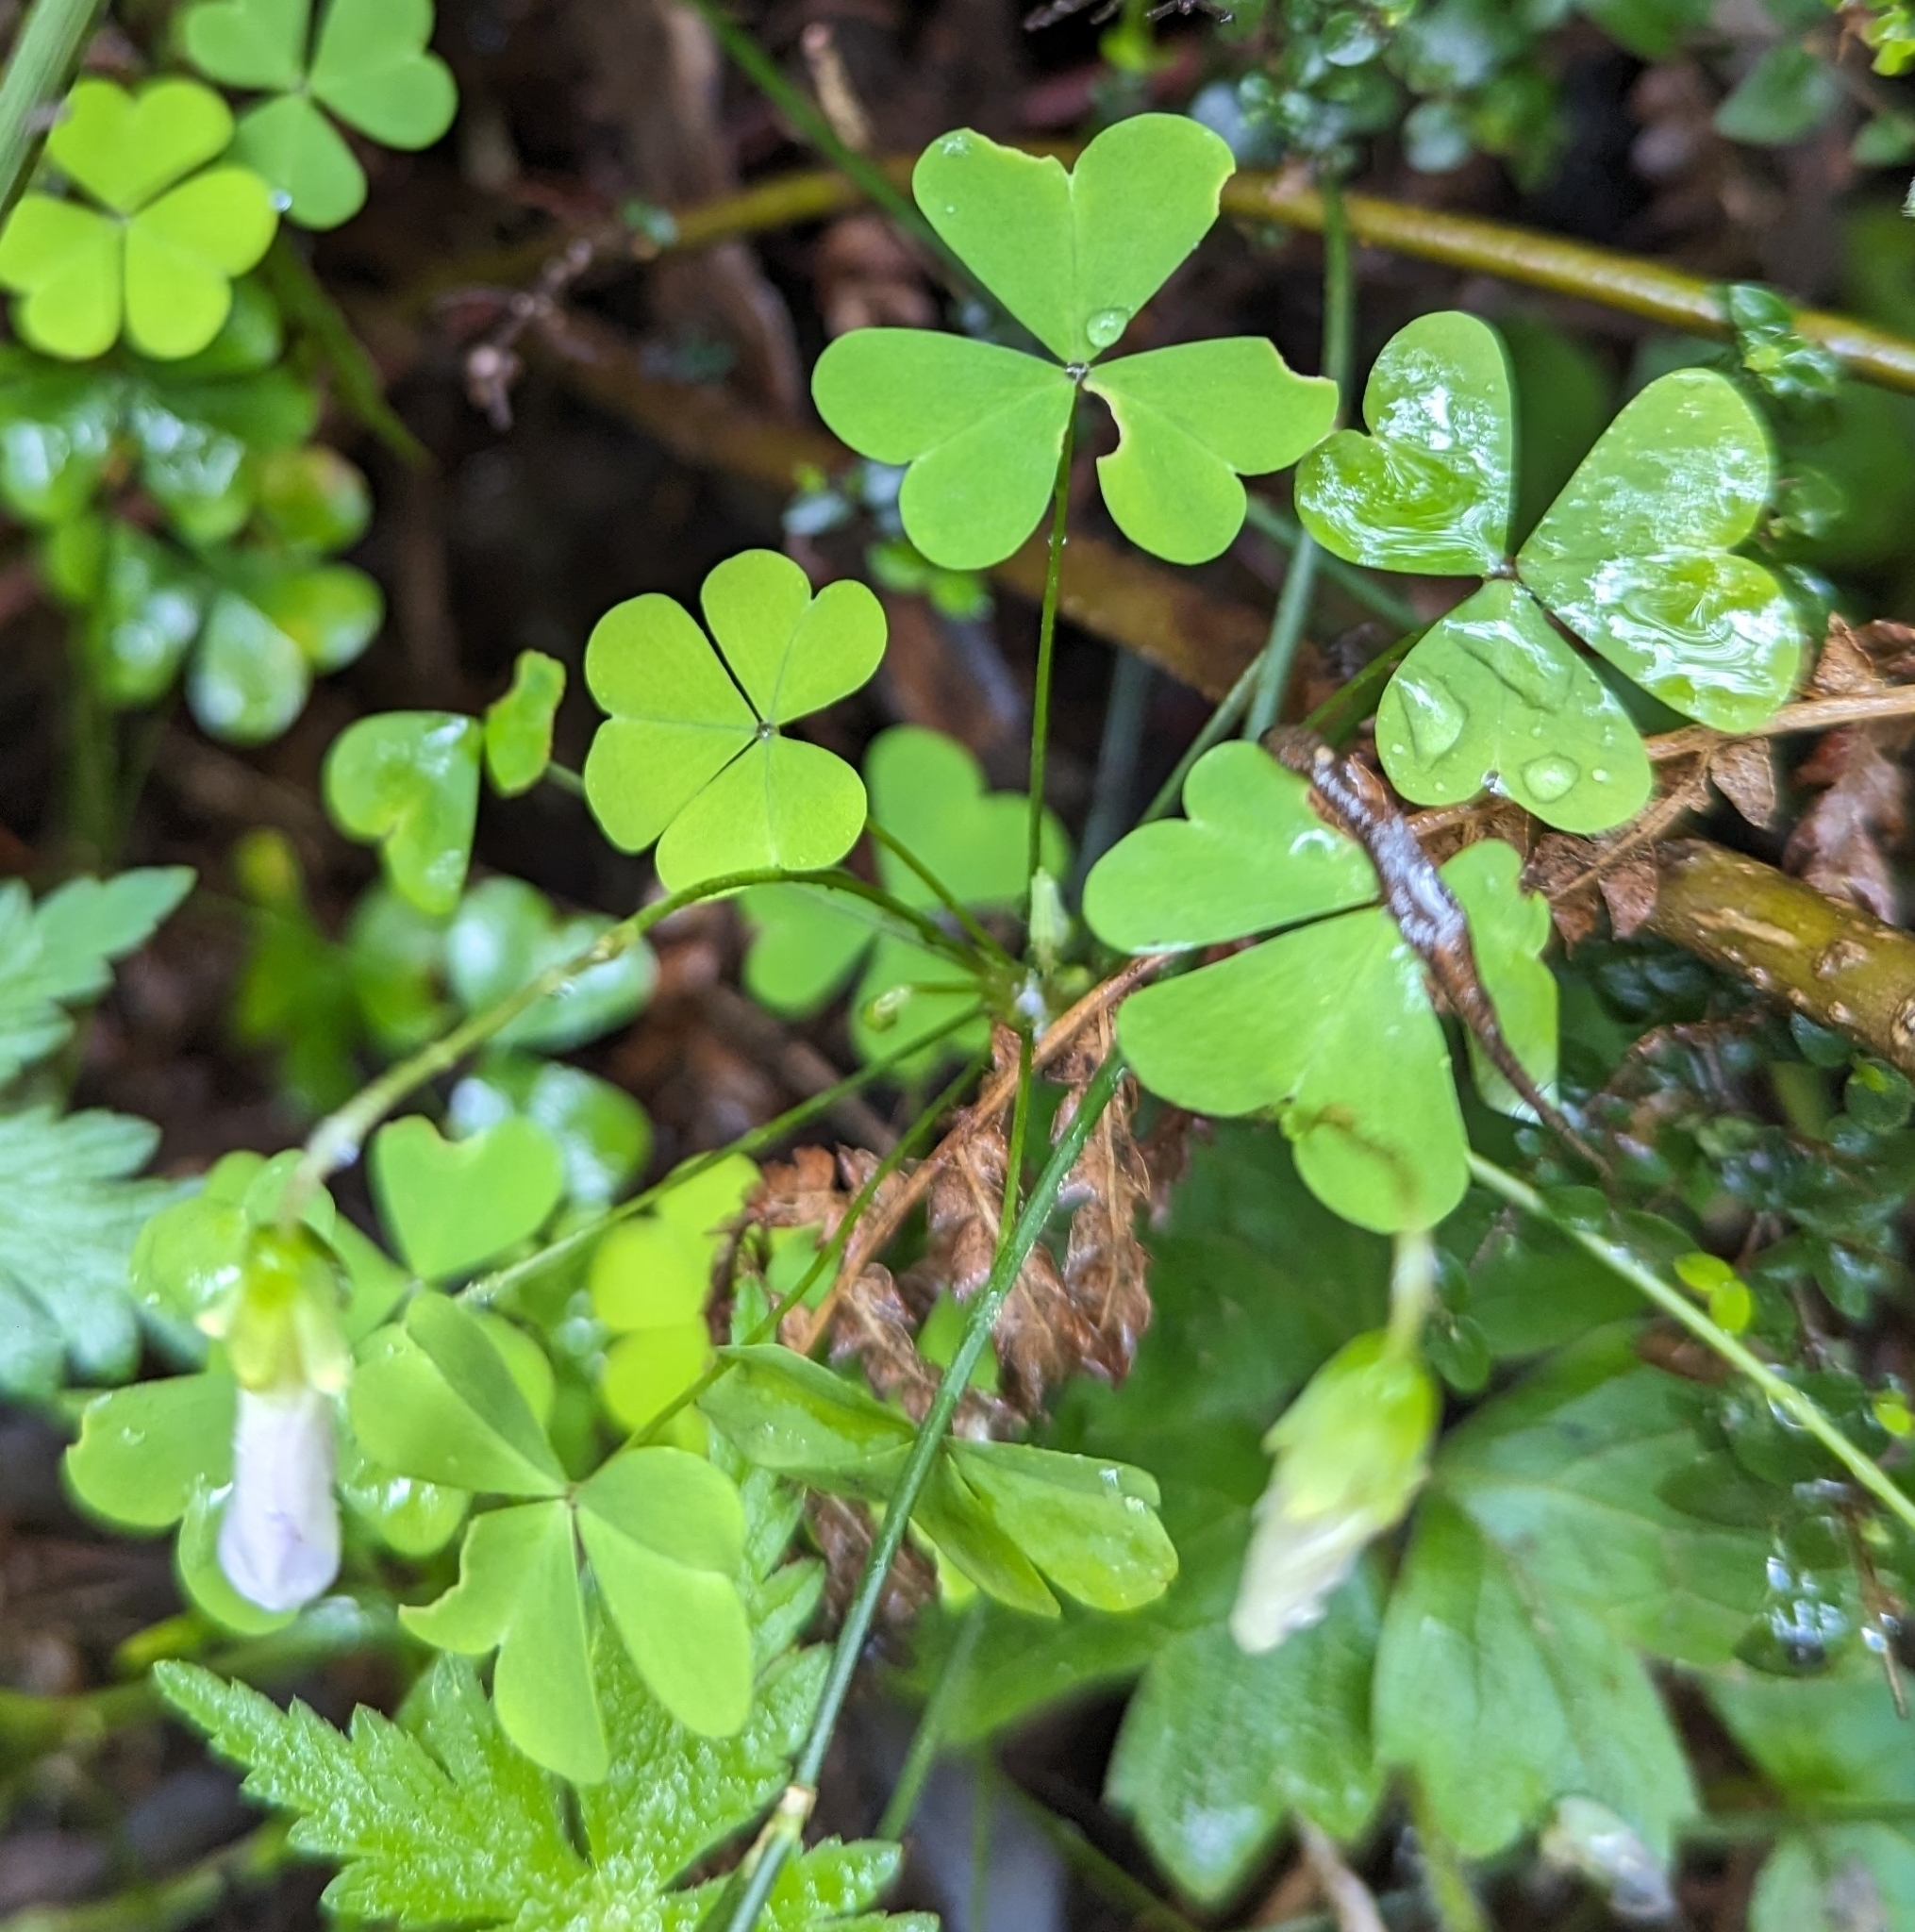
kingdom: Plantae
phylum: Tracheophyta
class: Magnoliopsida
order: Oxalidales
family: Oxalidaceae
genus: Oxalis
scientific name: Oxalis incarnata
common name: Pale pink-sorrel
